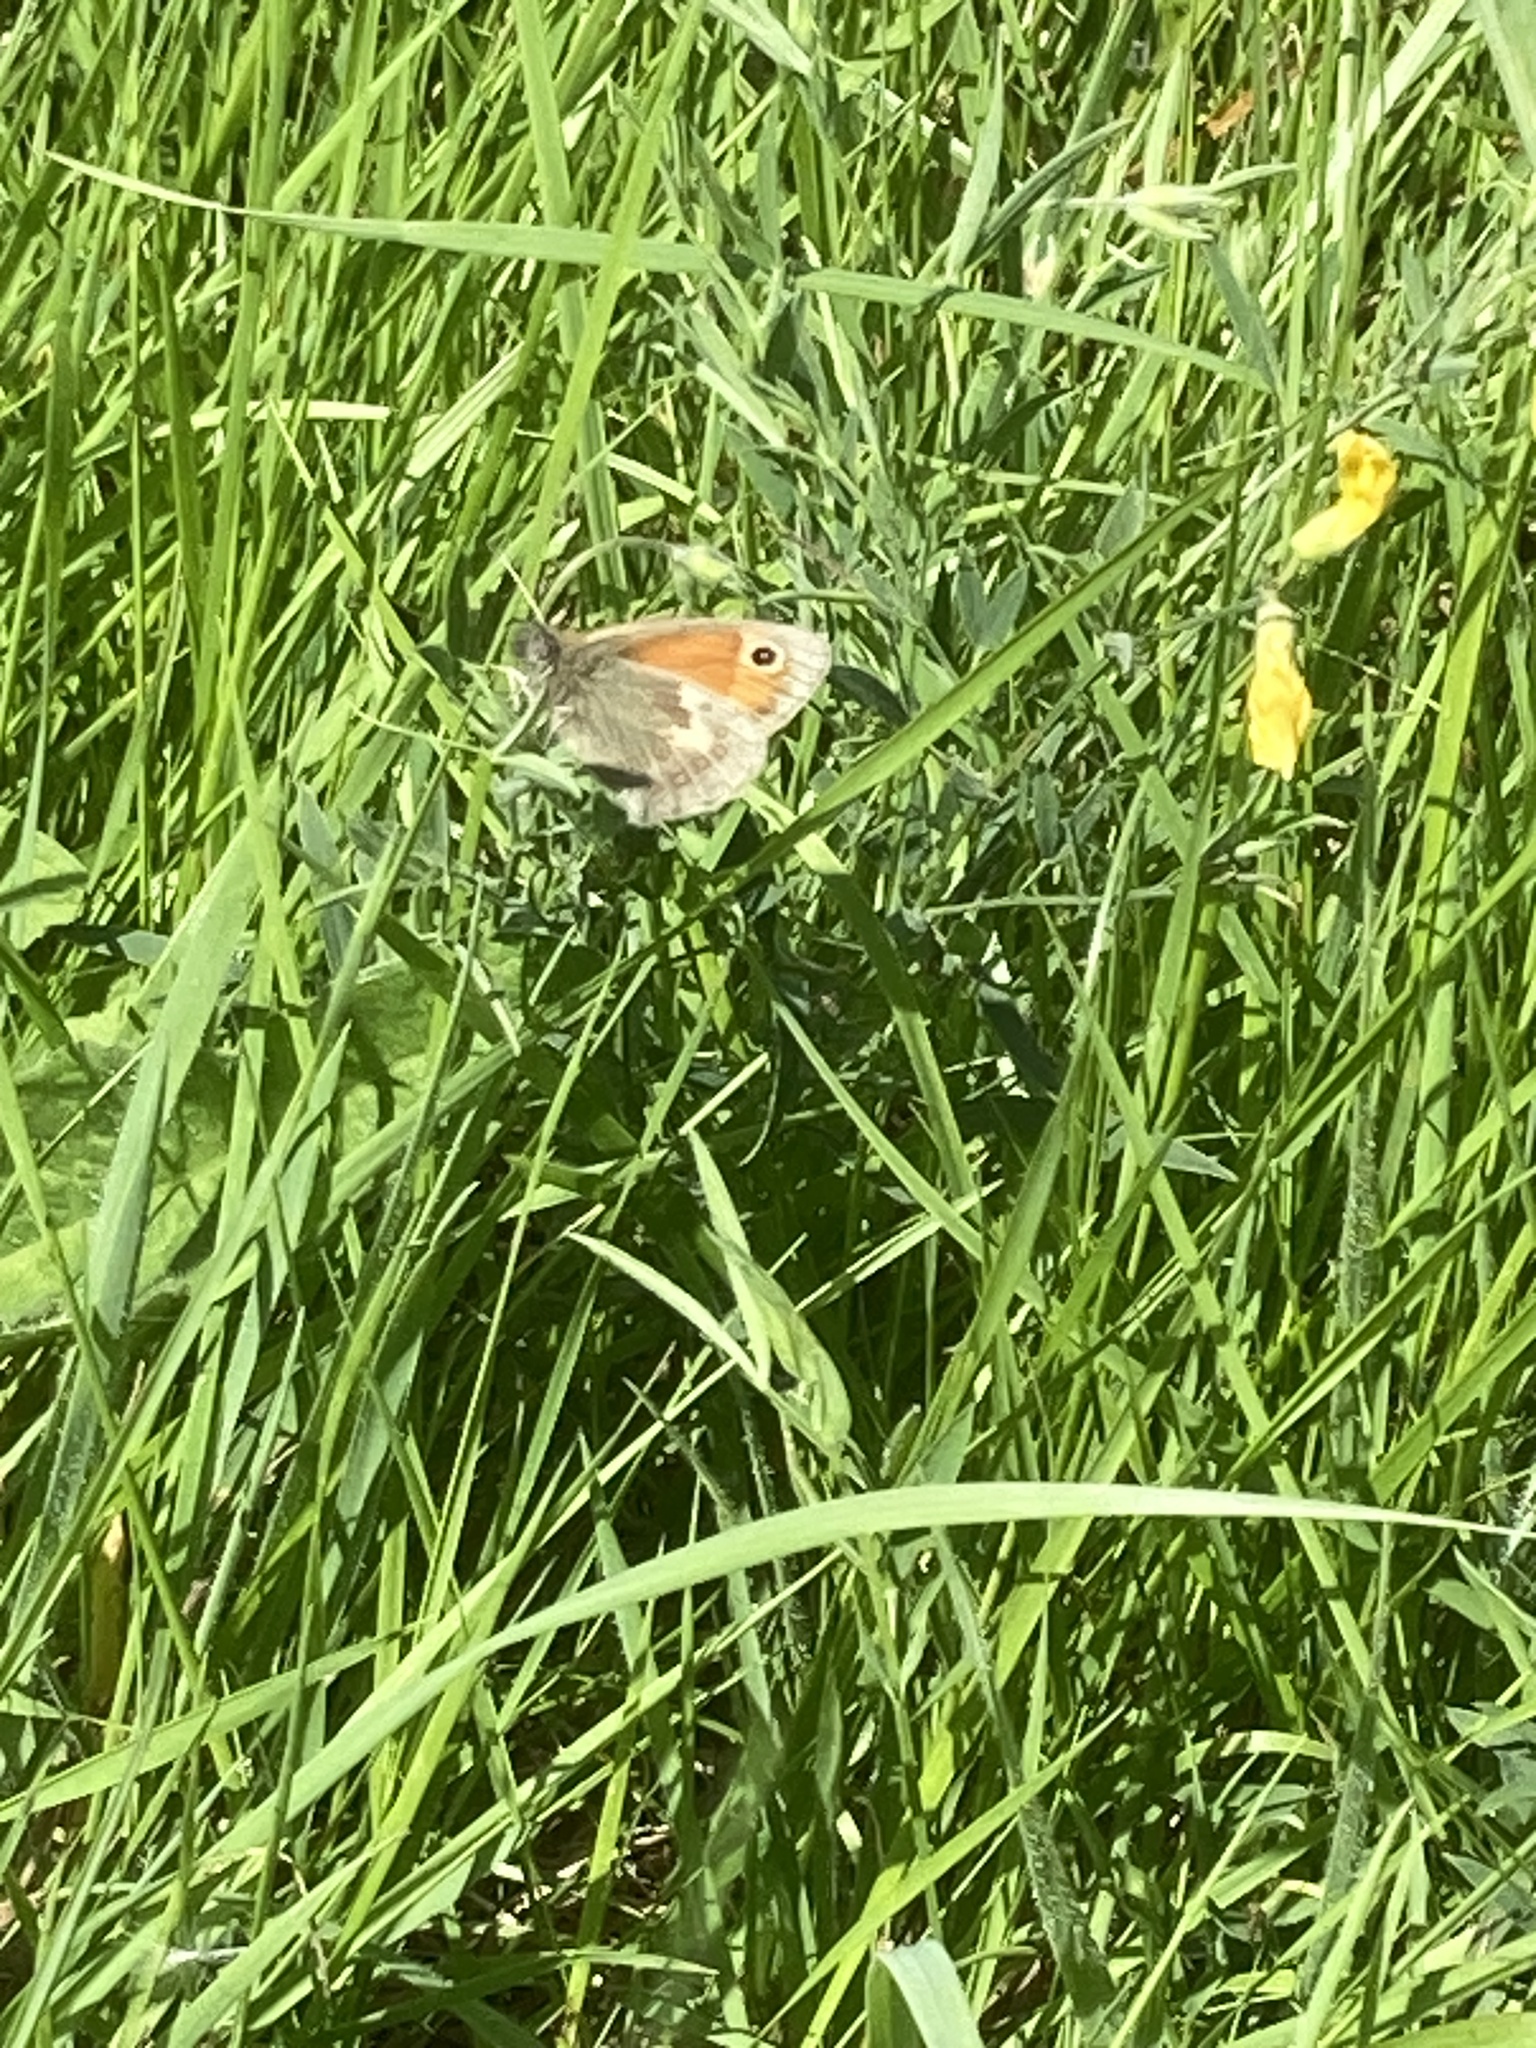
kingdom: Animalia
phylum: Arthropoda
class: Insecta
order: Lepidoptera
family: Nymphalidae
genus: Coenonympha
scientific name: Coenonympha pamphilus
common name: Small heath
